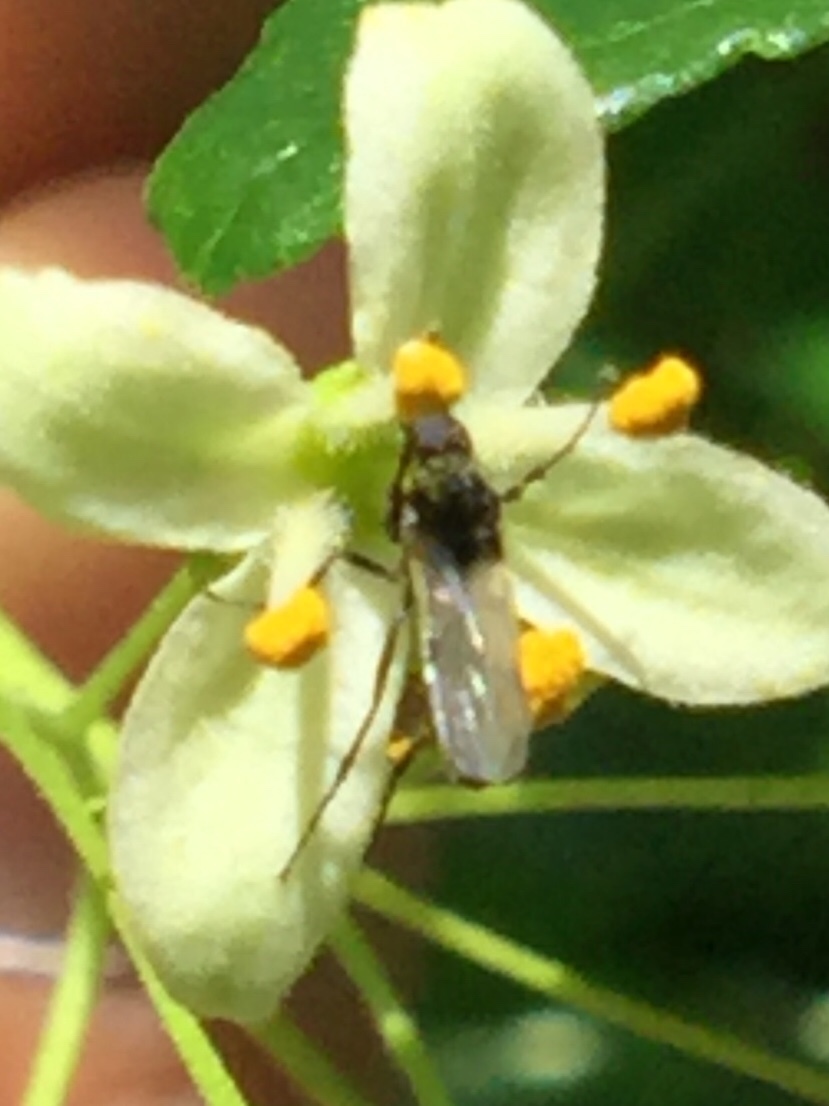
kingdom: Animalia
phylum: Arthropoda
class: Insecta
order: Diptera
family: Bibionidae
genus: Dilophus
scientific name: Dilophus
